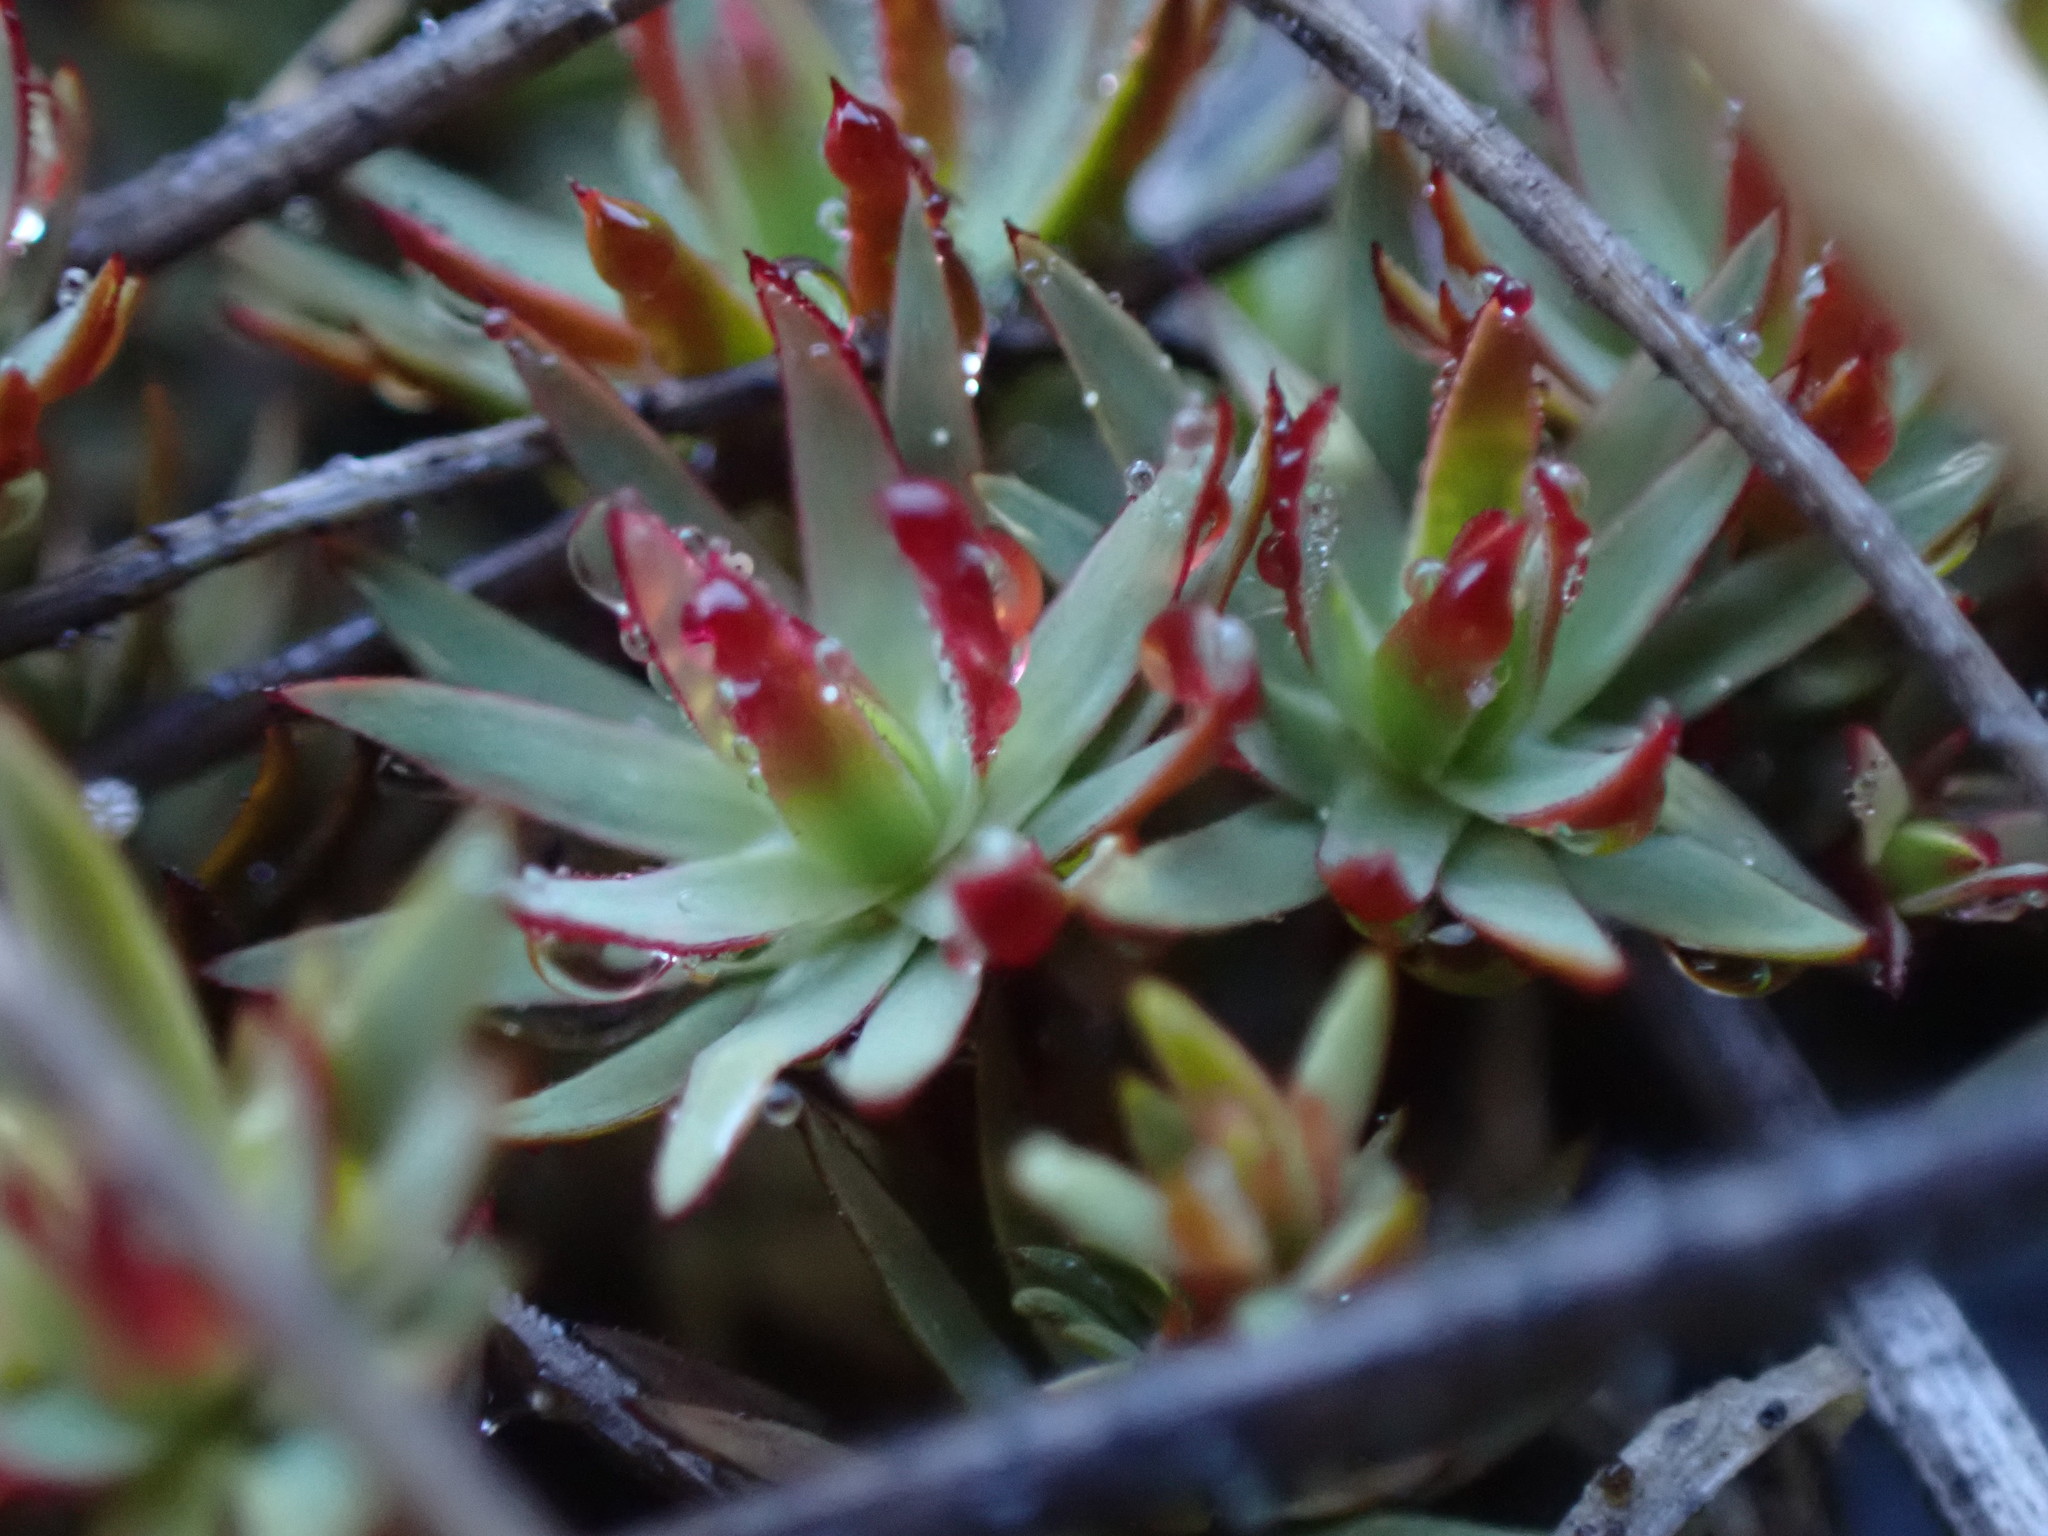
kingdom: Plantae
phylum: Bryophyta
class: Polytrichopsida
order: Polytrichales
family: Polytrichaceae
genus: Pogonatum
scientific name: Pogonatum urnigerum
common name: Urn hair moss
